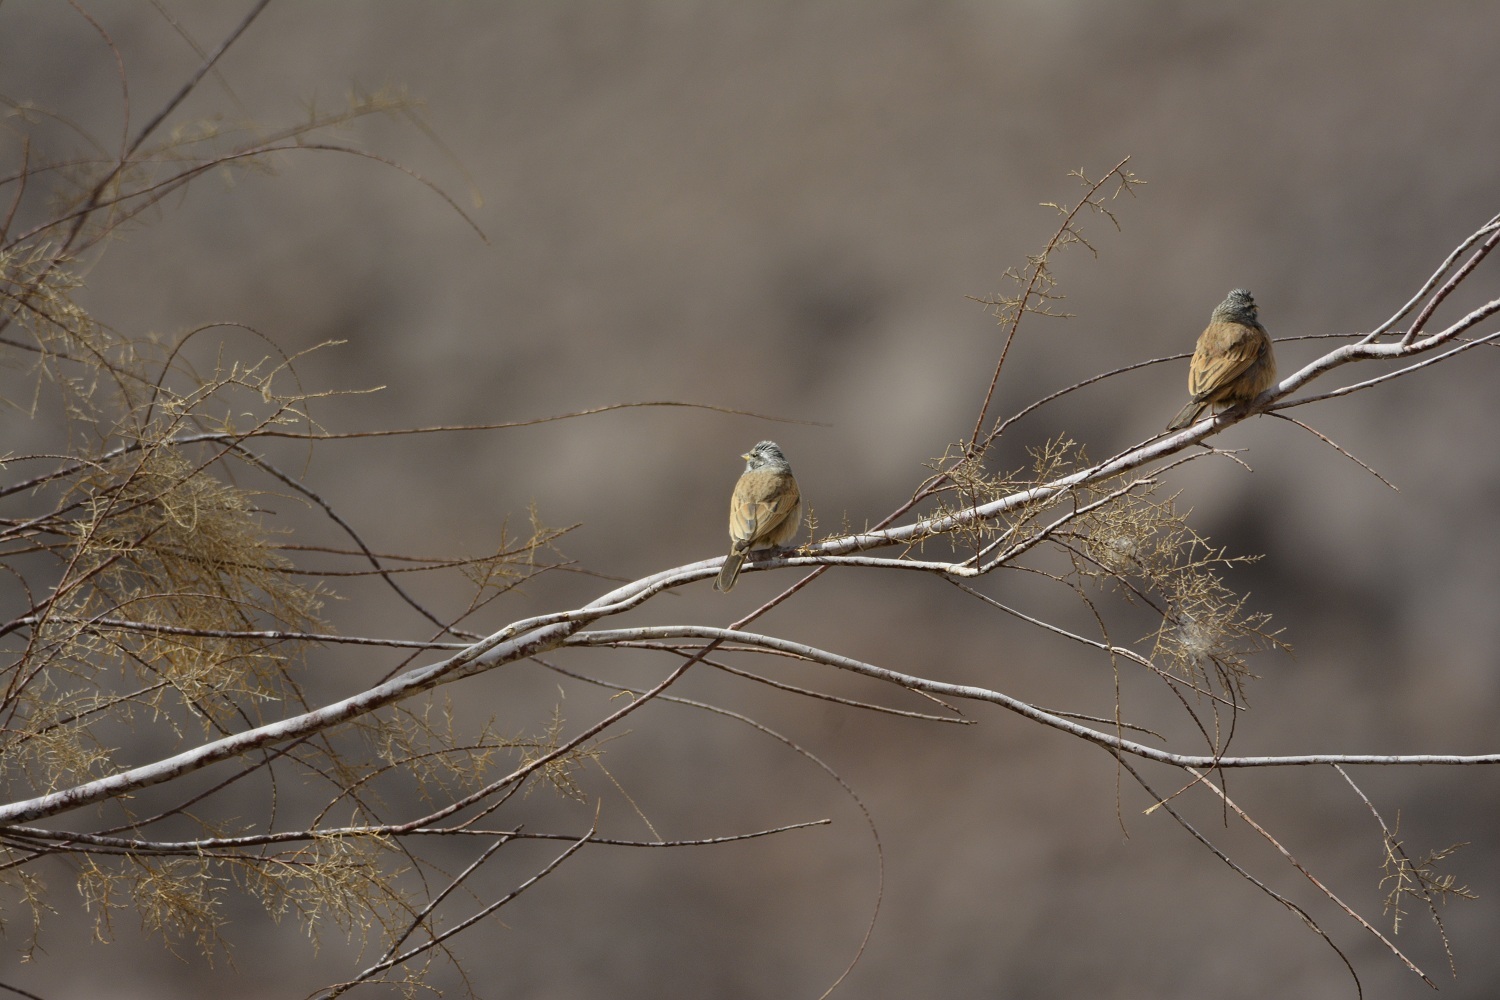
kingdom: Animalia
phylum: Chordata
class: Aves
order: Passeriformes
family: Emberizidae
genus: Emberiza
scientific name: Emberiza sahari
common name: House bunting
